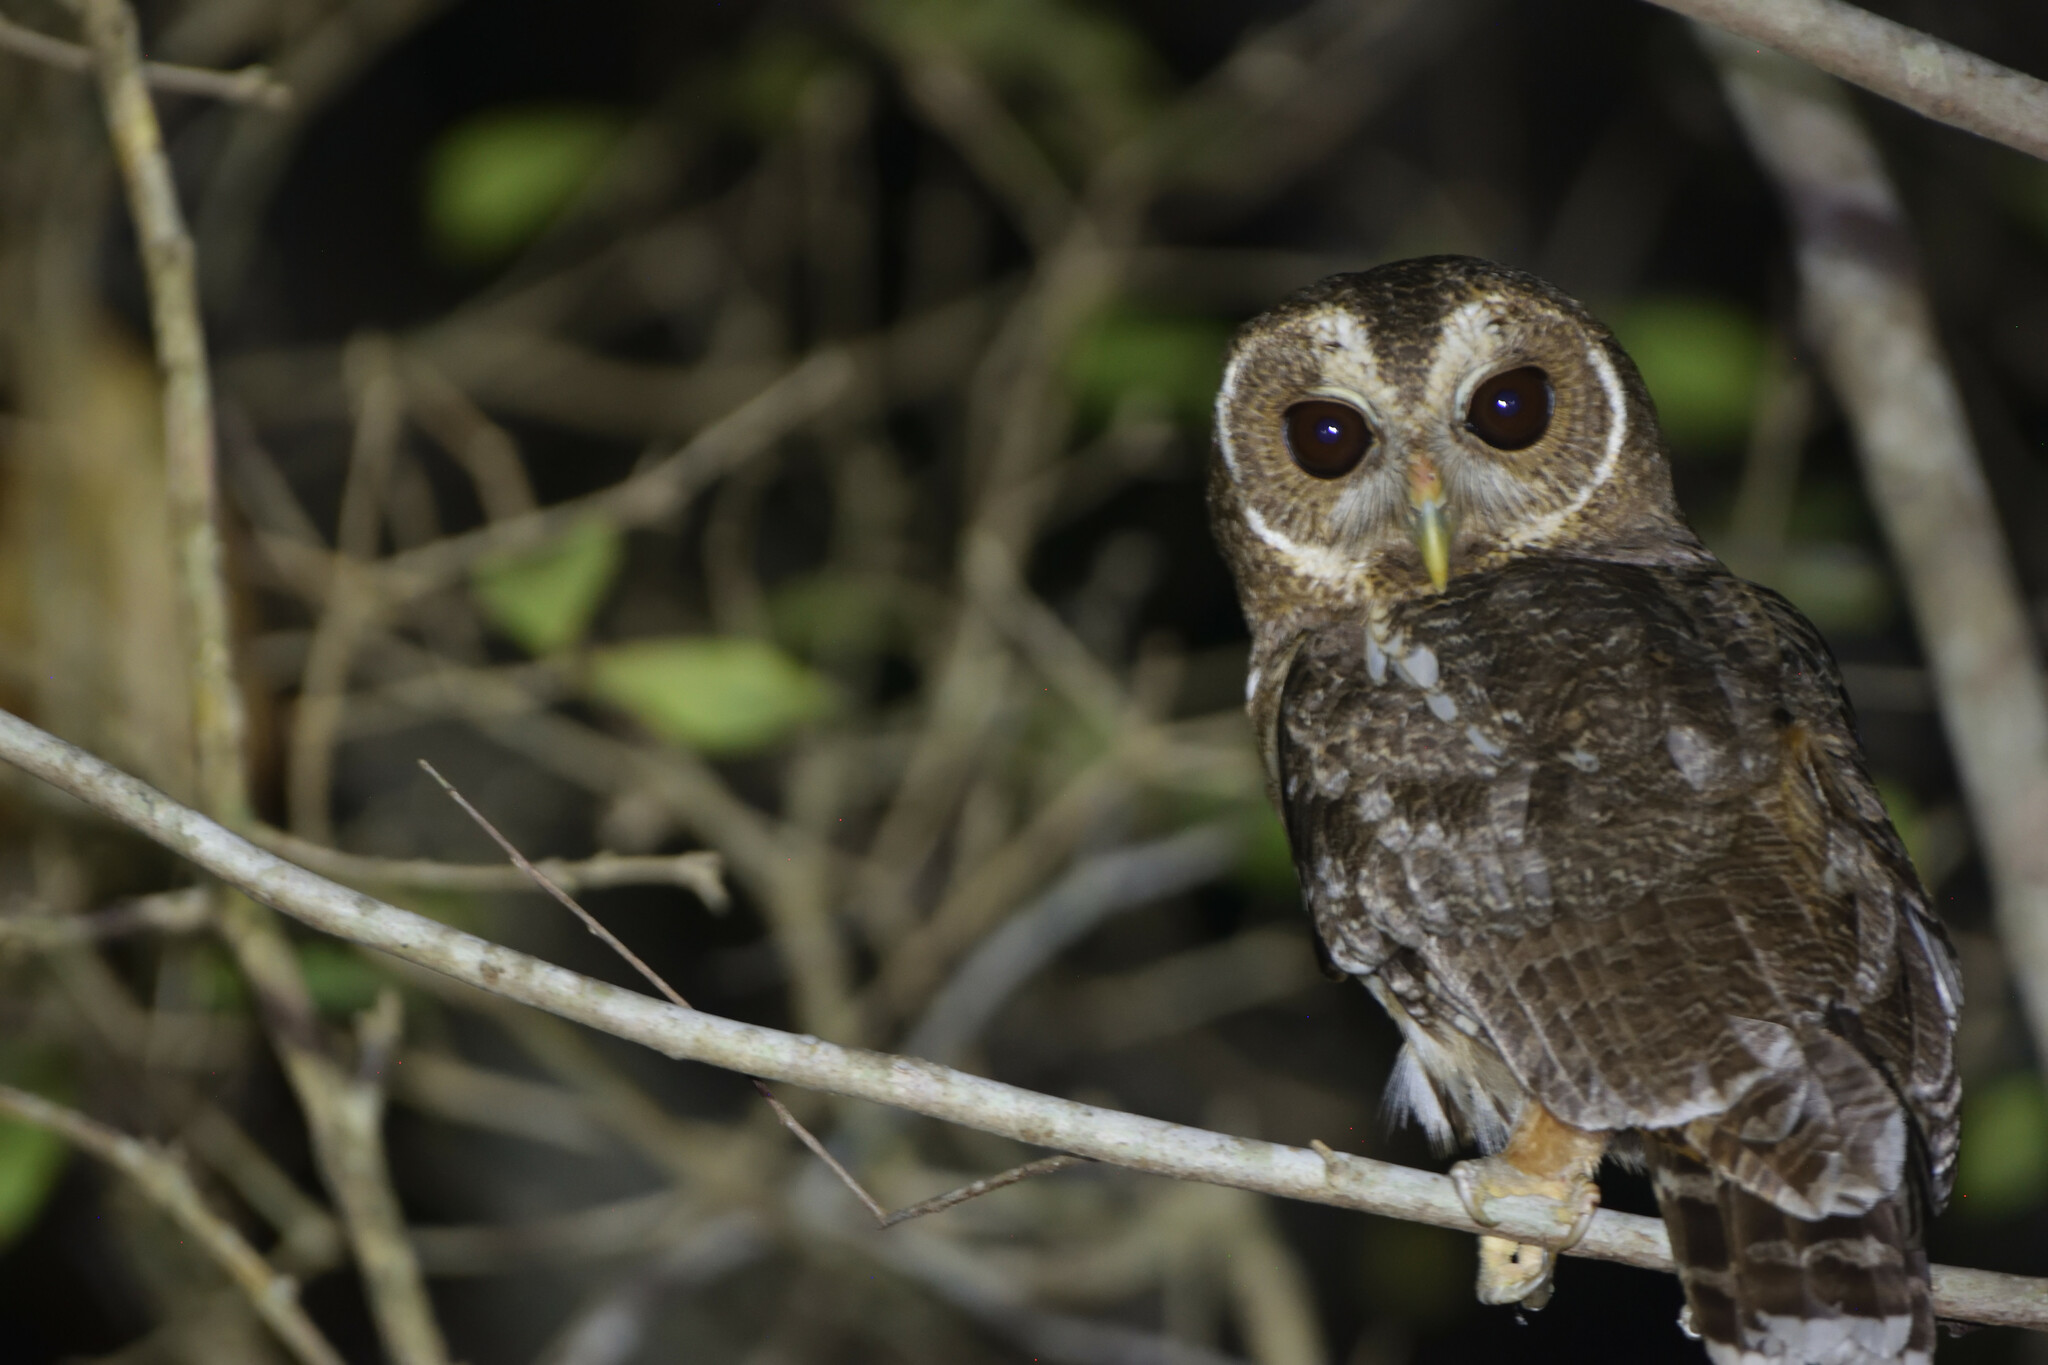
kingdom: Animalia
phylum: Chordata
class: Aves
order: Strigiformes
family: Strigidae
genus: Strix
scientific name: Strix virgata
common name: Mottled owl
